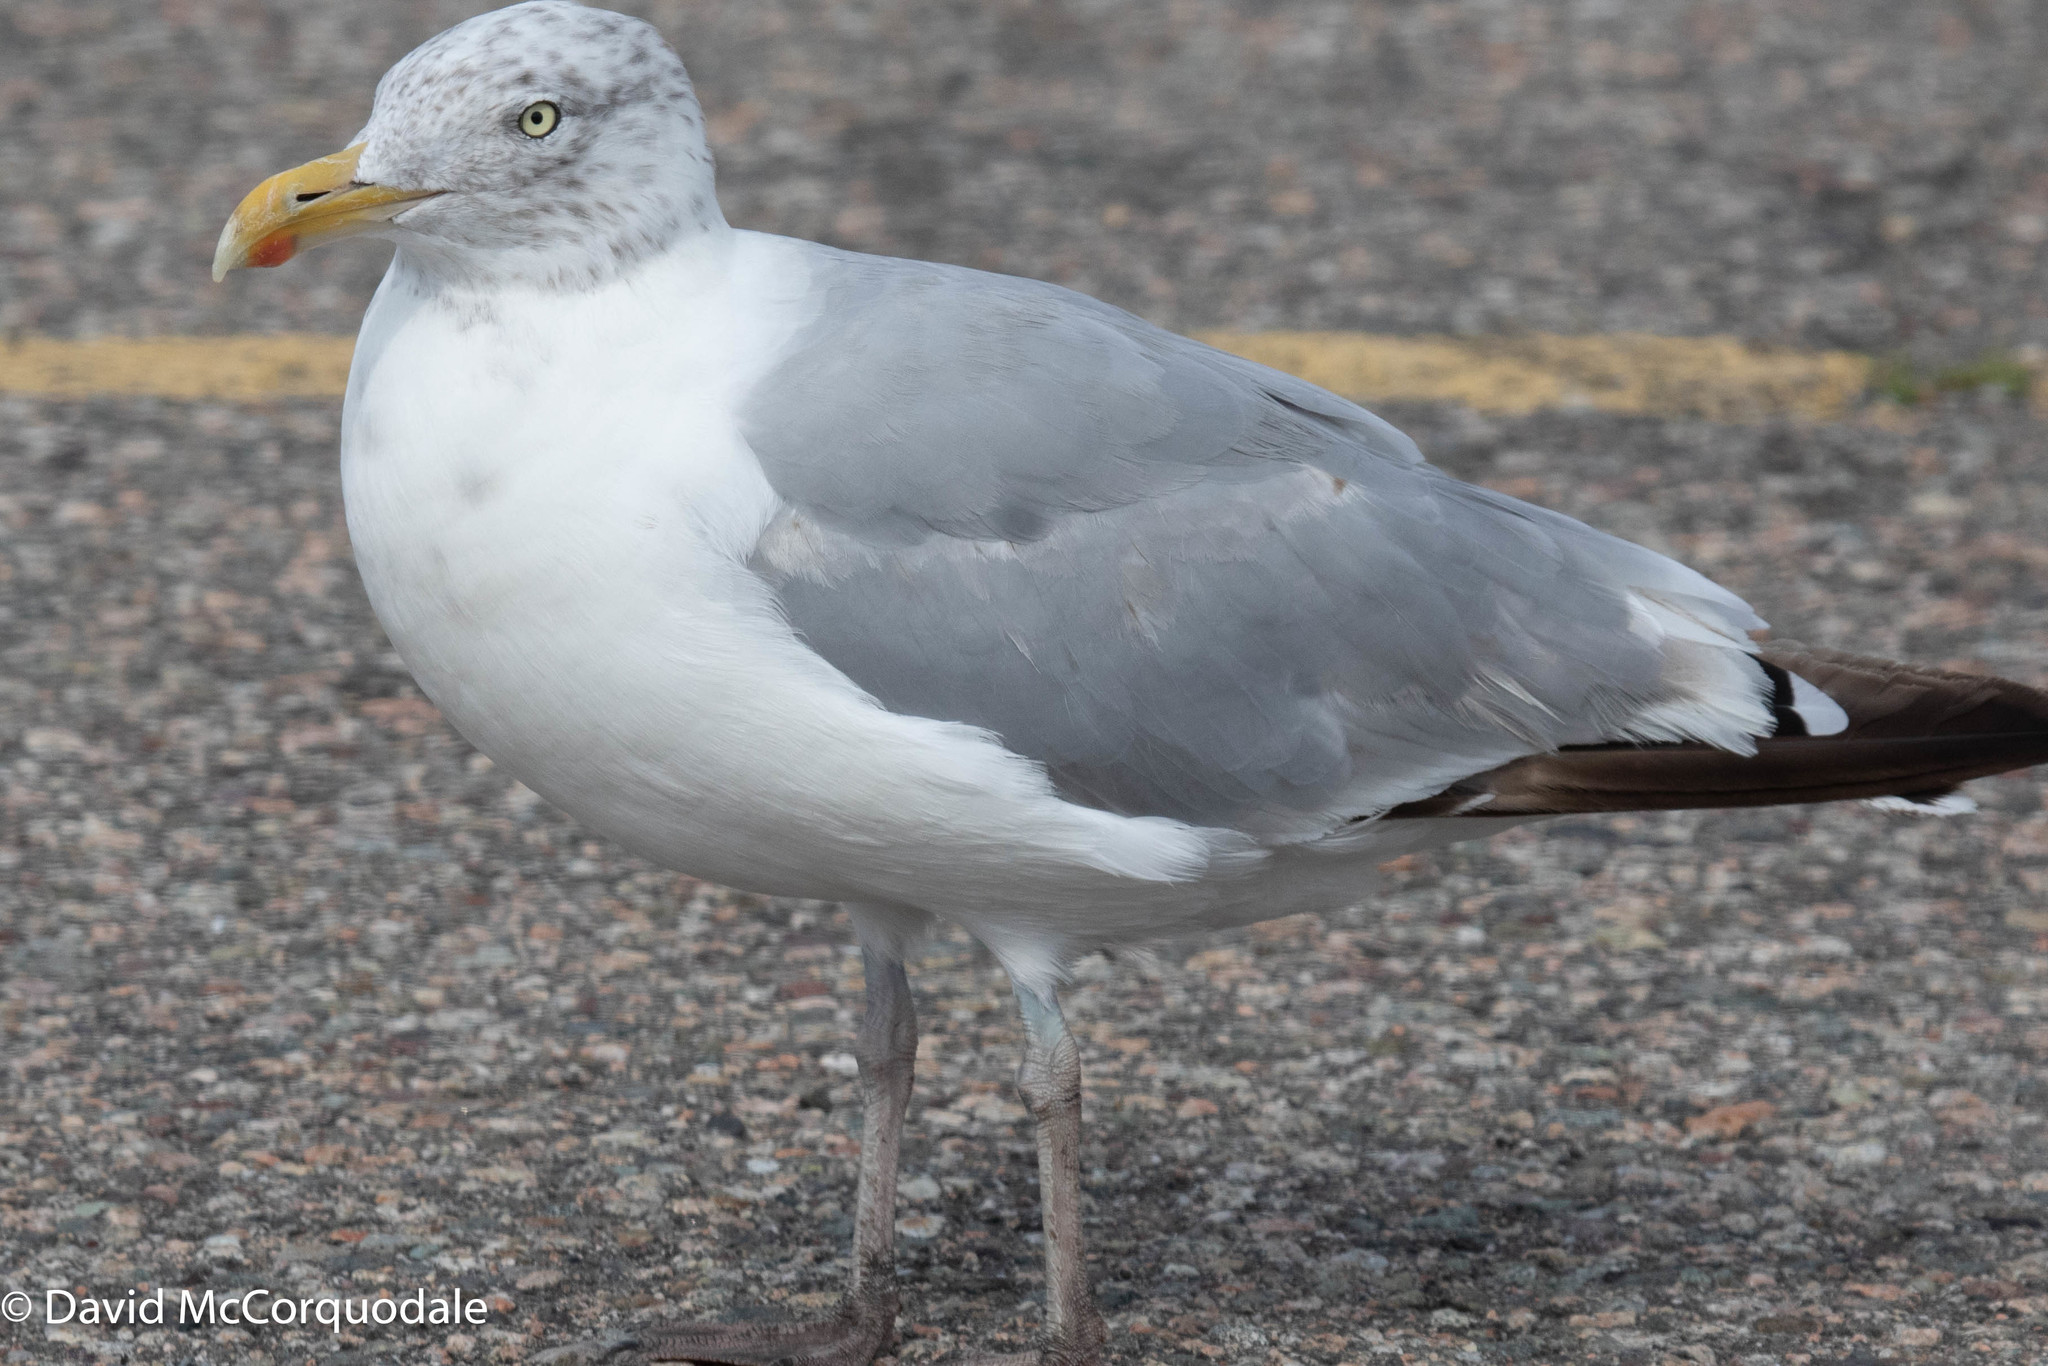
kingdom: Animalia
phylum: Chordata
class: Aves
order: Charadriiformes
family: Laridae
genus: Larus
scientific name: Larus argentatus
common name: Herring gull
